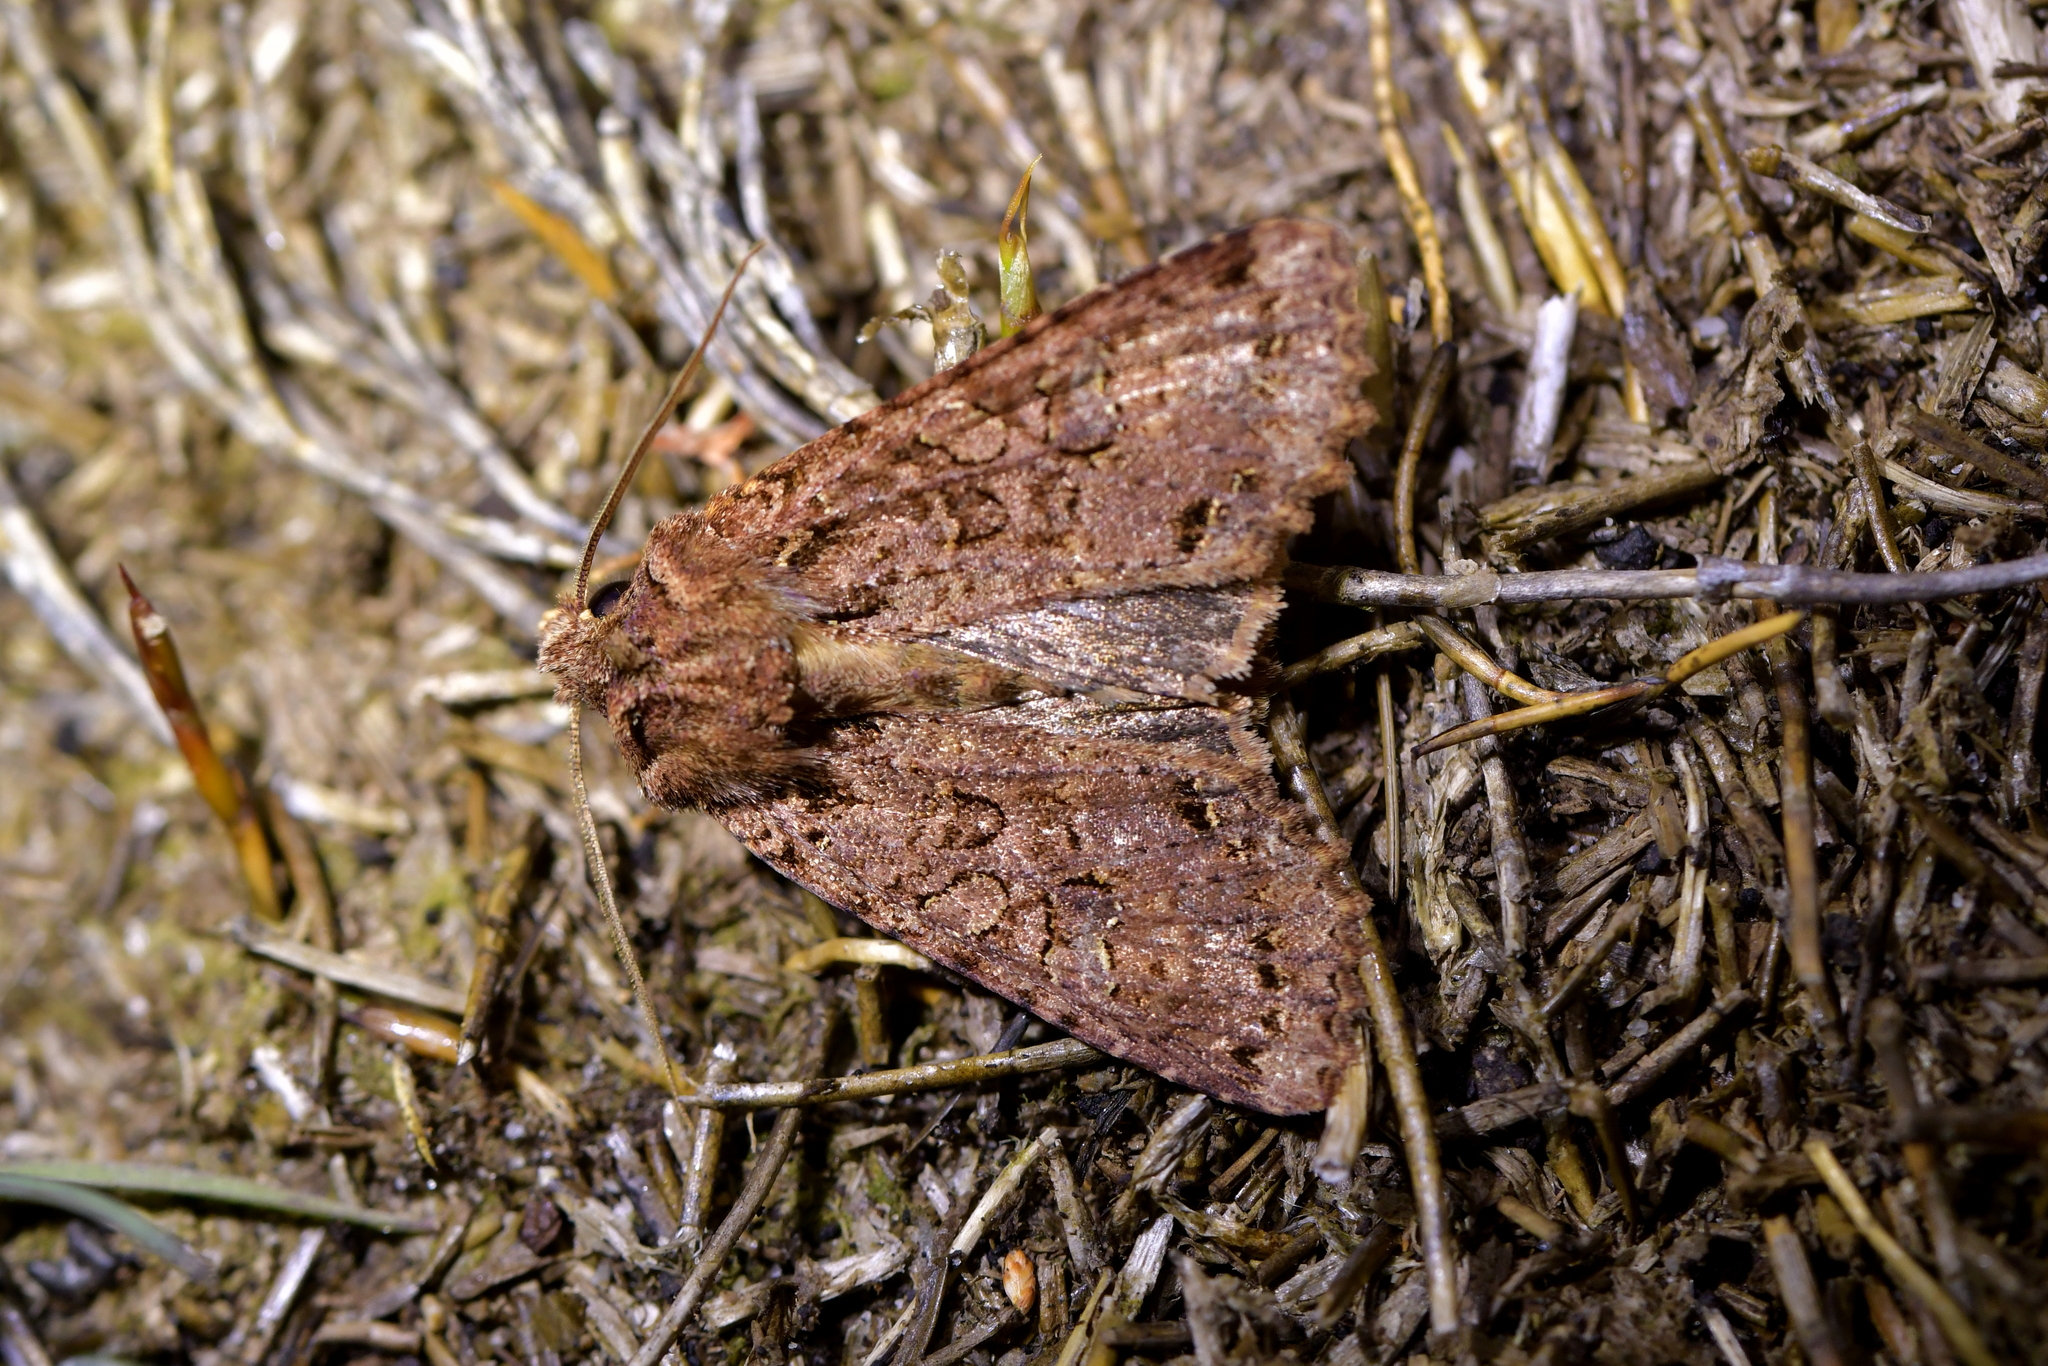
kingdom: Animalia
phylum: Arthropoda
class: Insecta
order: Lepidoptera
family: Noctuidae
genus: Meterana
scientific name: Meterana
